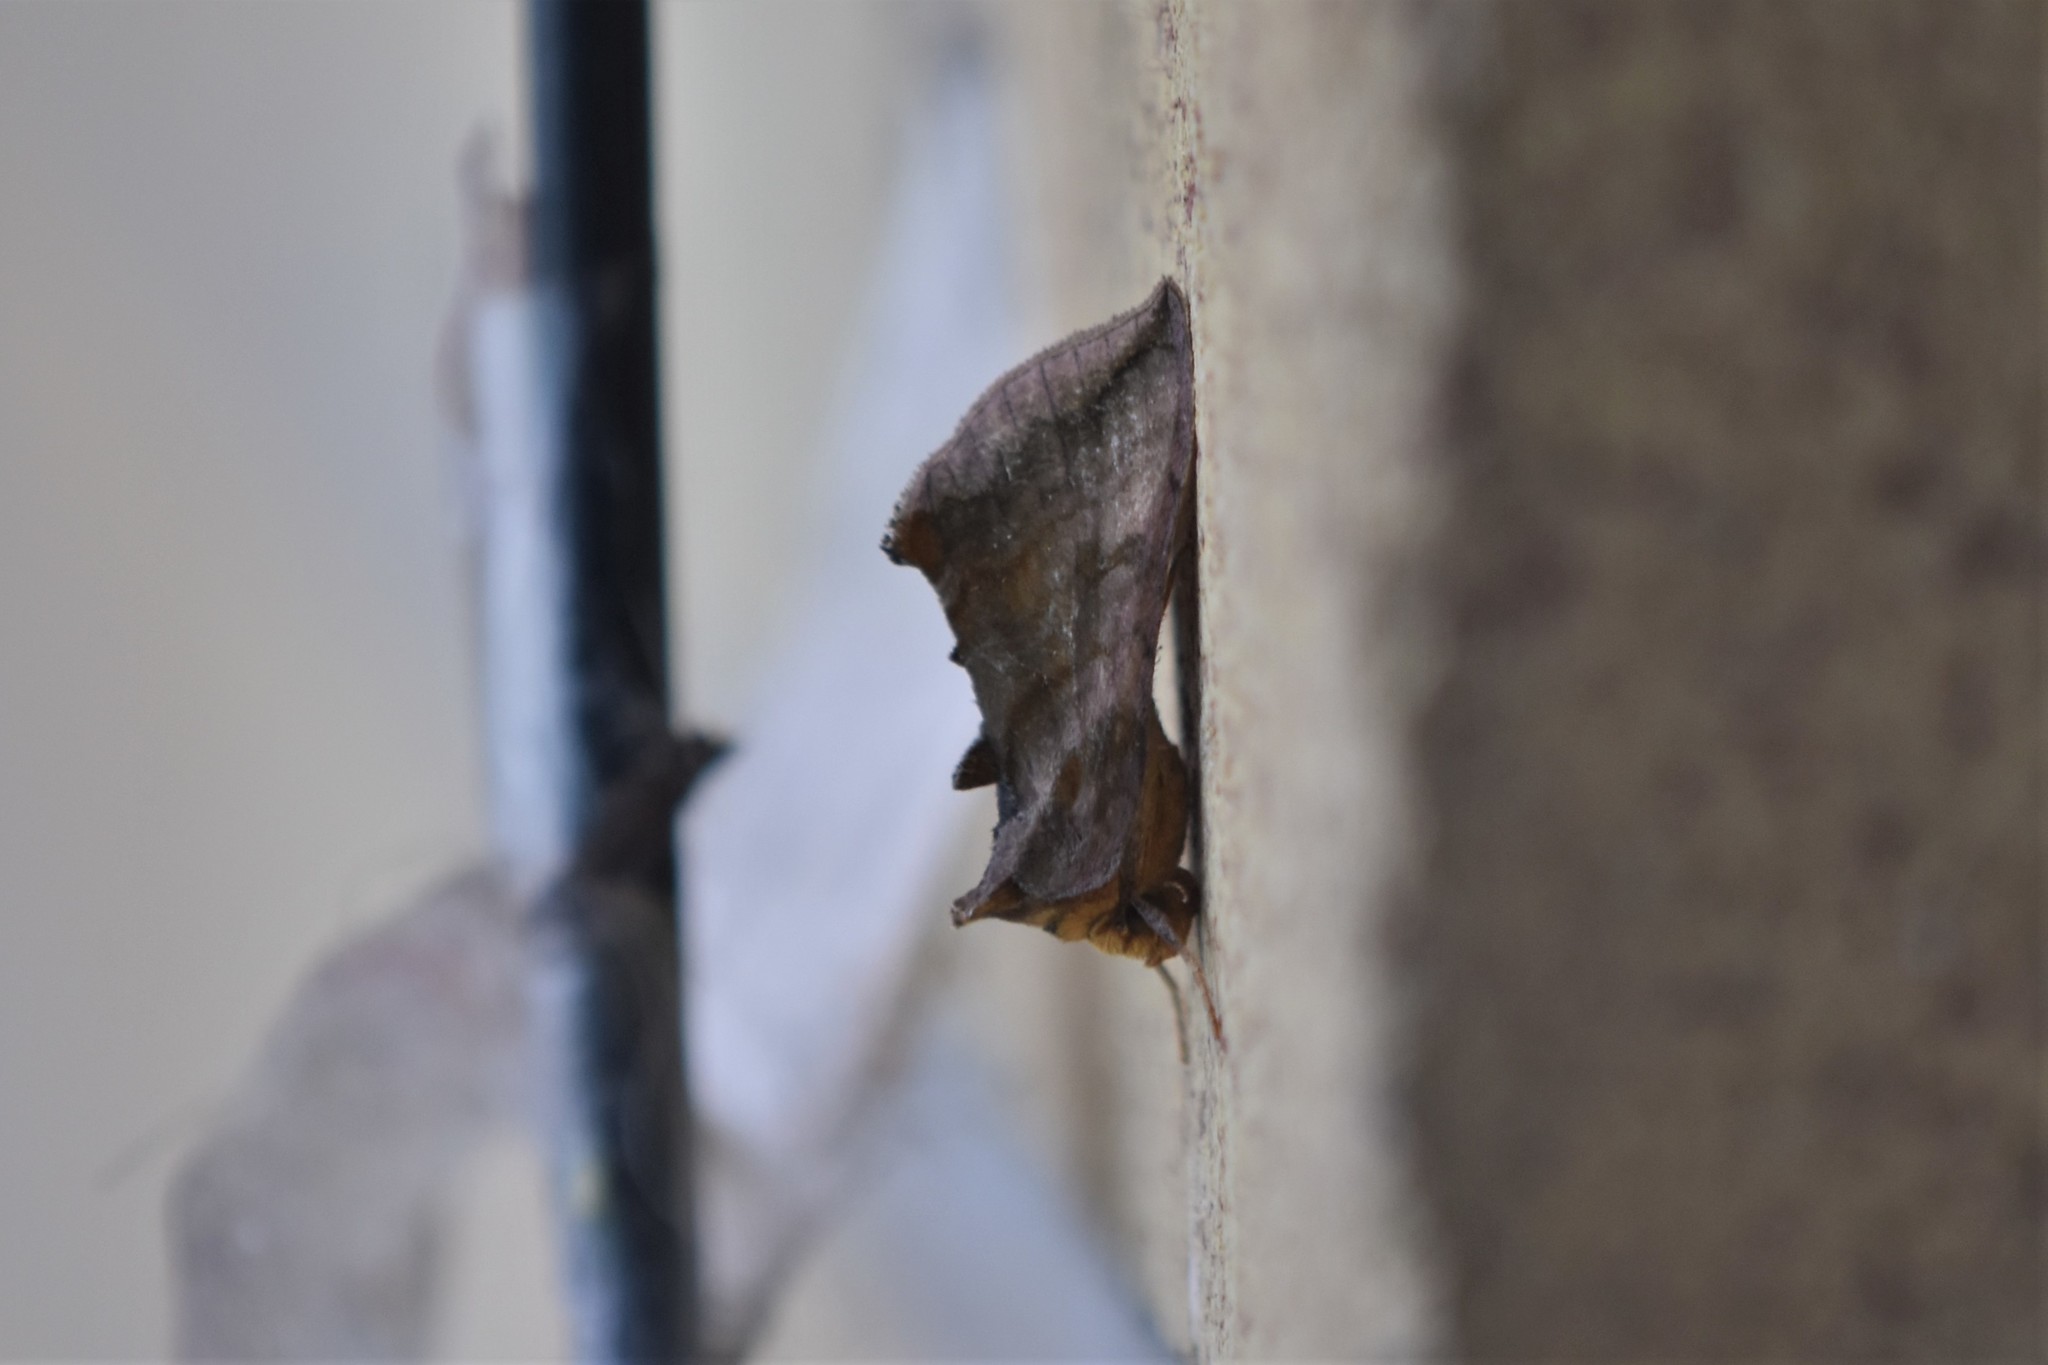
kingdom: Animalia
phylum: Arthropoda
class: Insecta
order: Lepidoptera
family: Noctuidae
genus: Allagrapha
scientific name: Allagrapha aerea
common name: Unspotted looper moth
